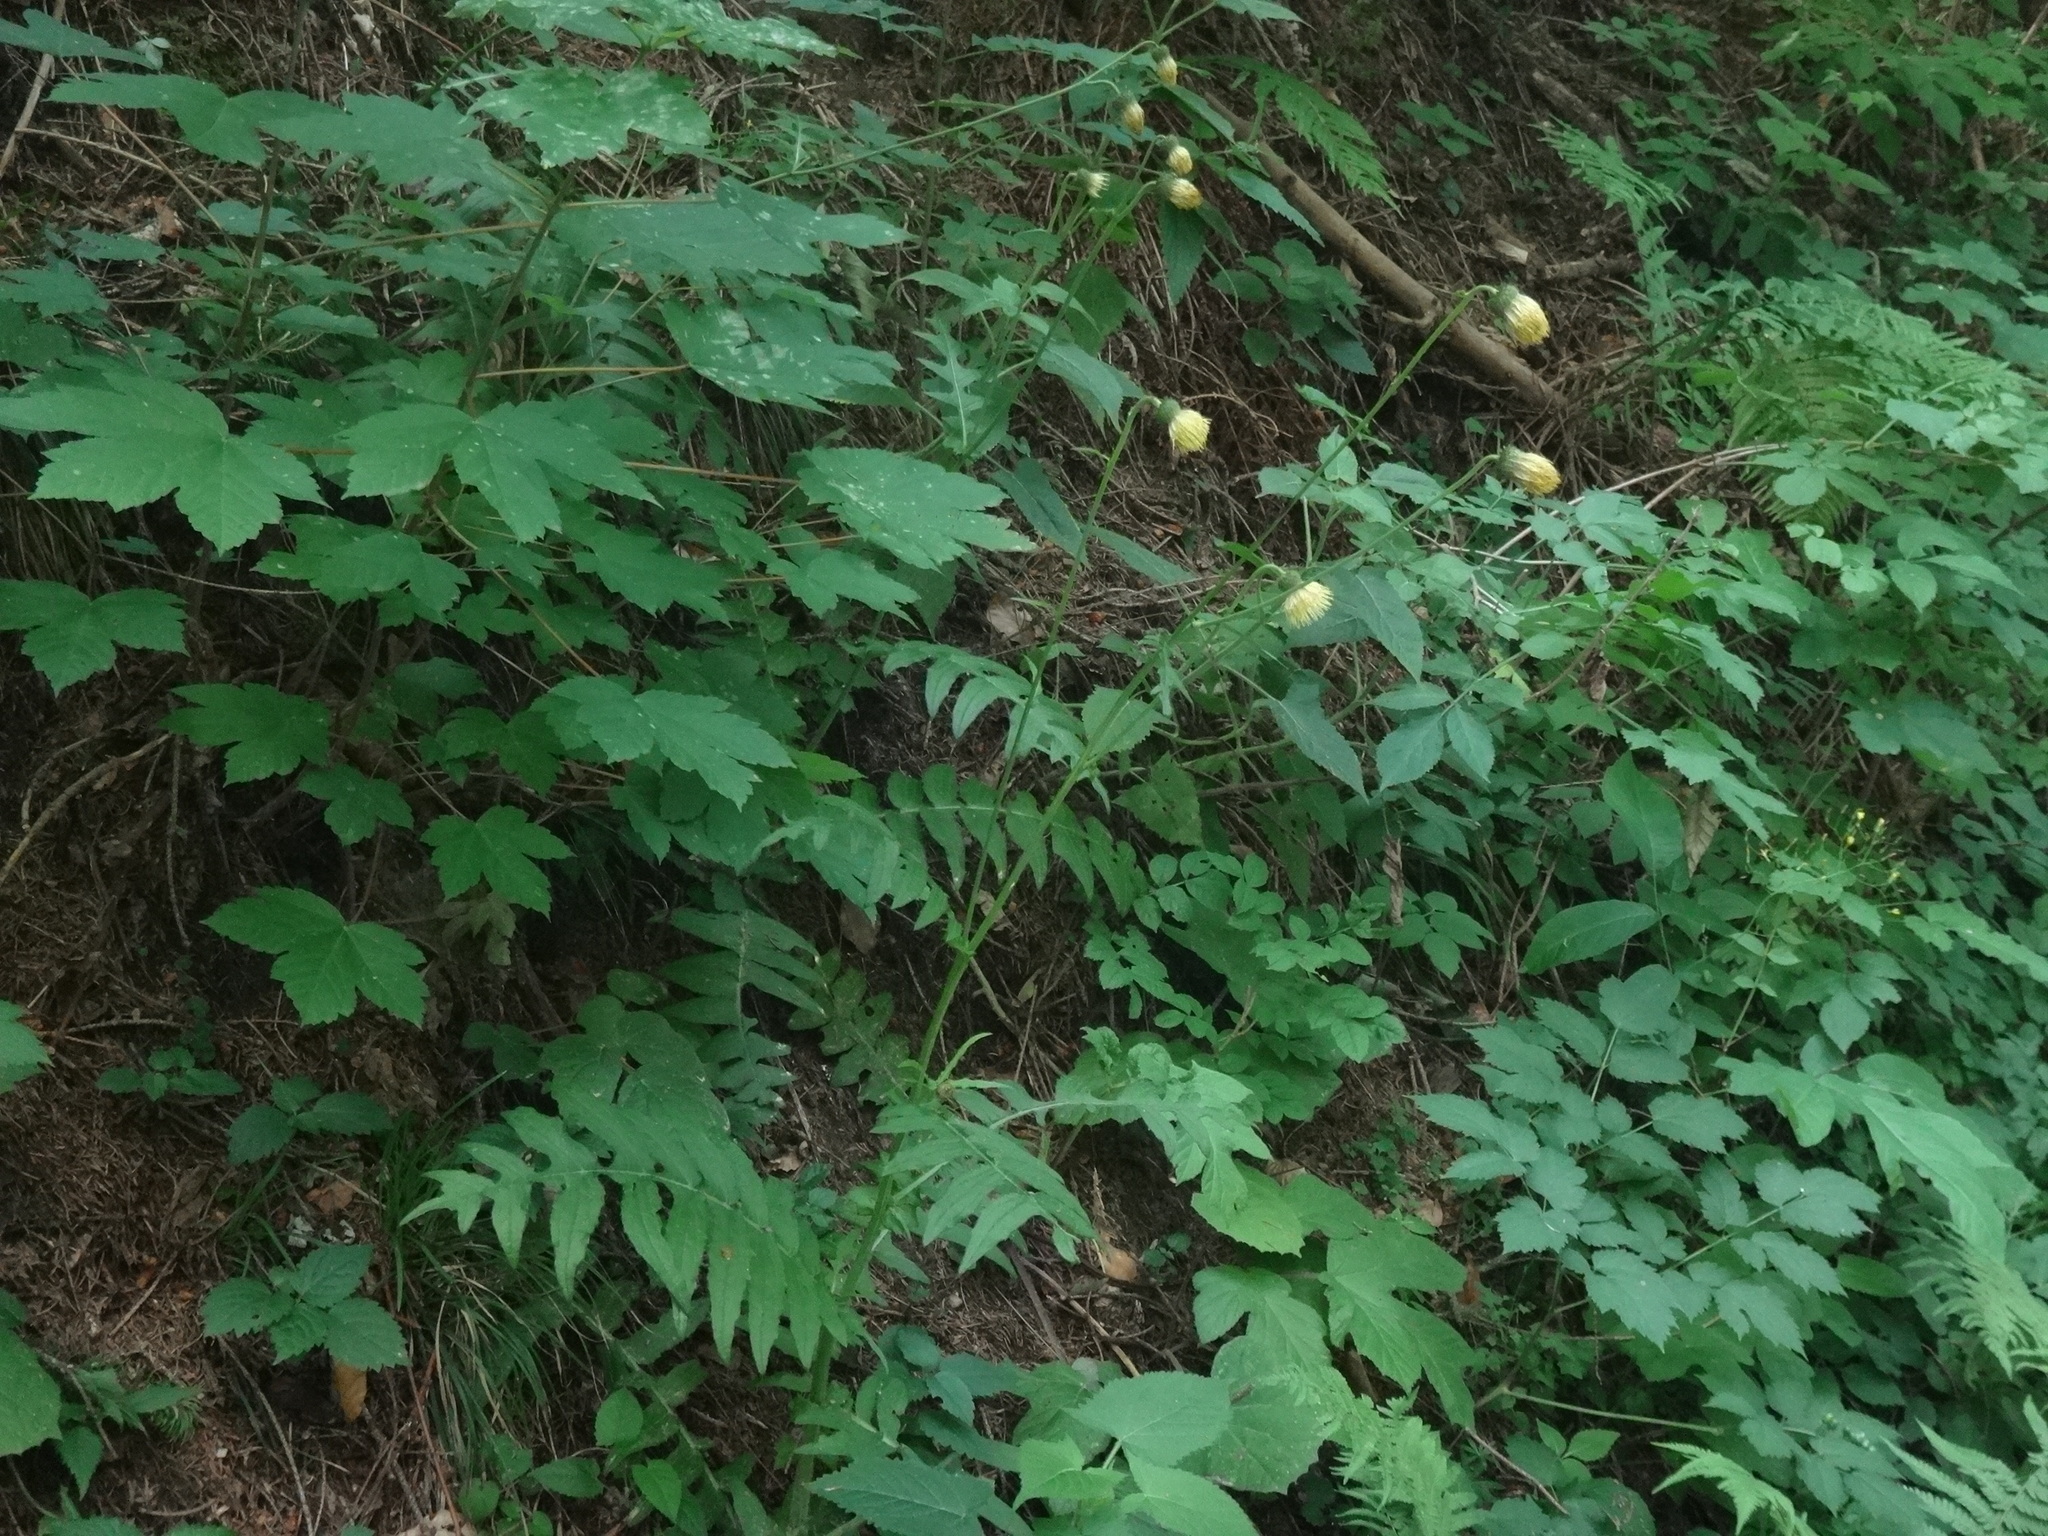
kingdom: Plantae
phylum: Tracheophyta
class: Magnoliopsida
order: Asterales
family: Asteraceae
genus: Cirsium
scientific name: Cirsium erisithales
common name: Yellow thistle
